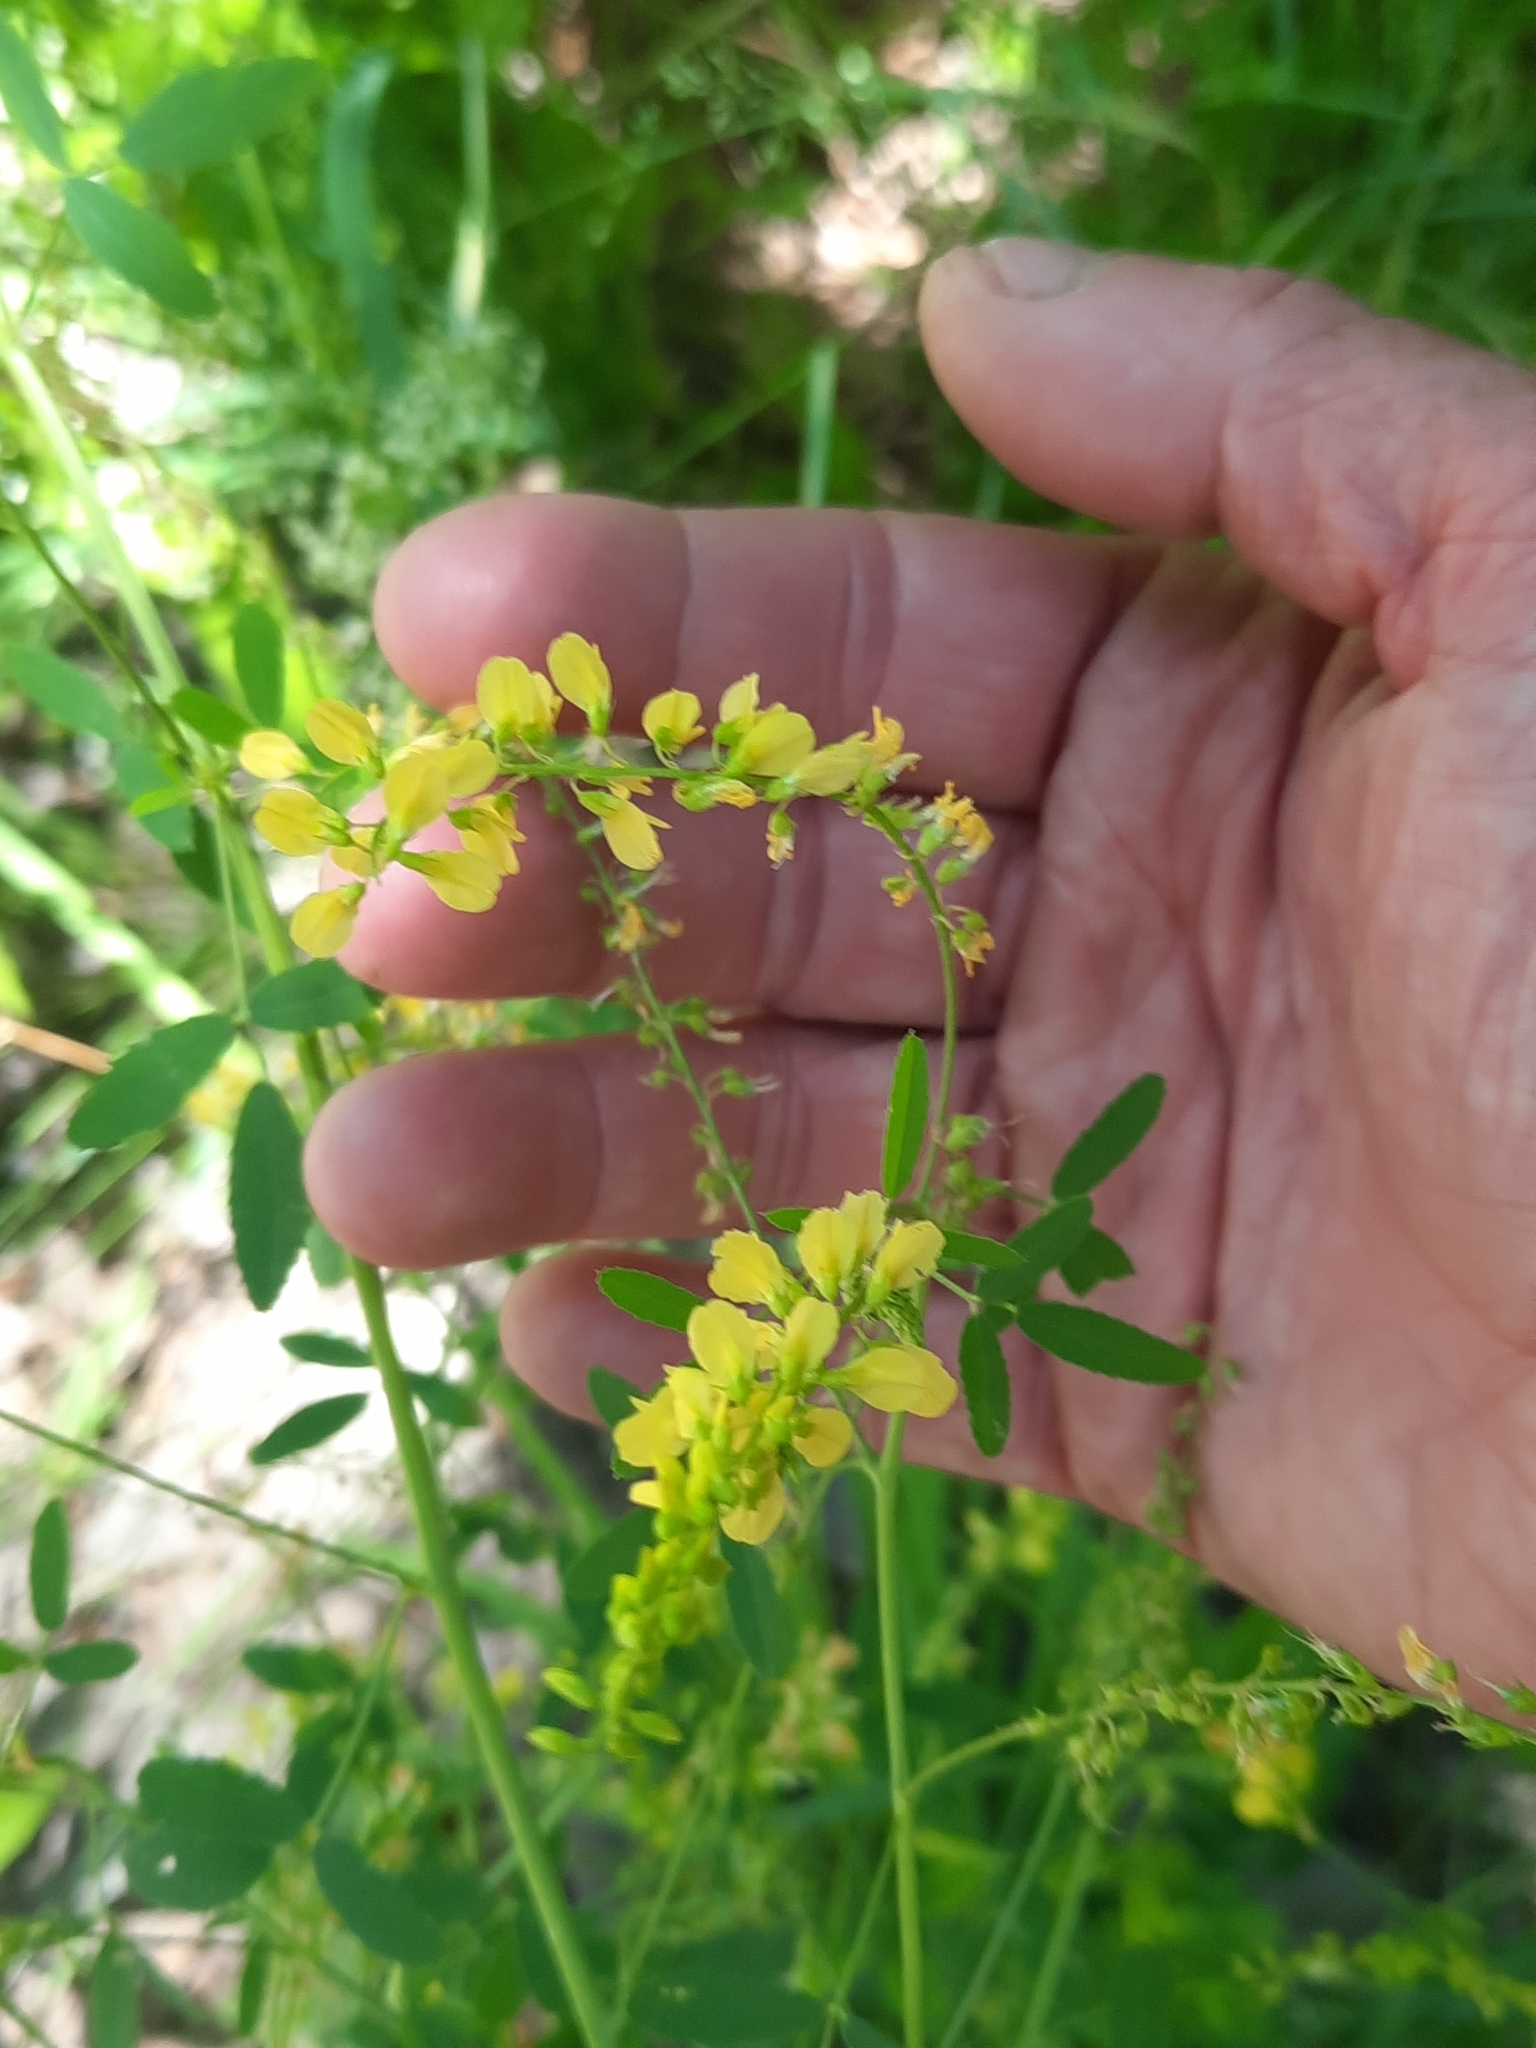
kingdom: Plantae
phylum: Tracheophyta
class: Magnoliopsida
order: Fabales
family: Fabaceae
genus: Melilotus
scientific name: Melilotus officinalis
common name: Sweetclover
